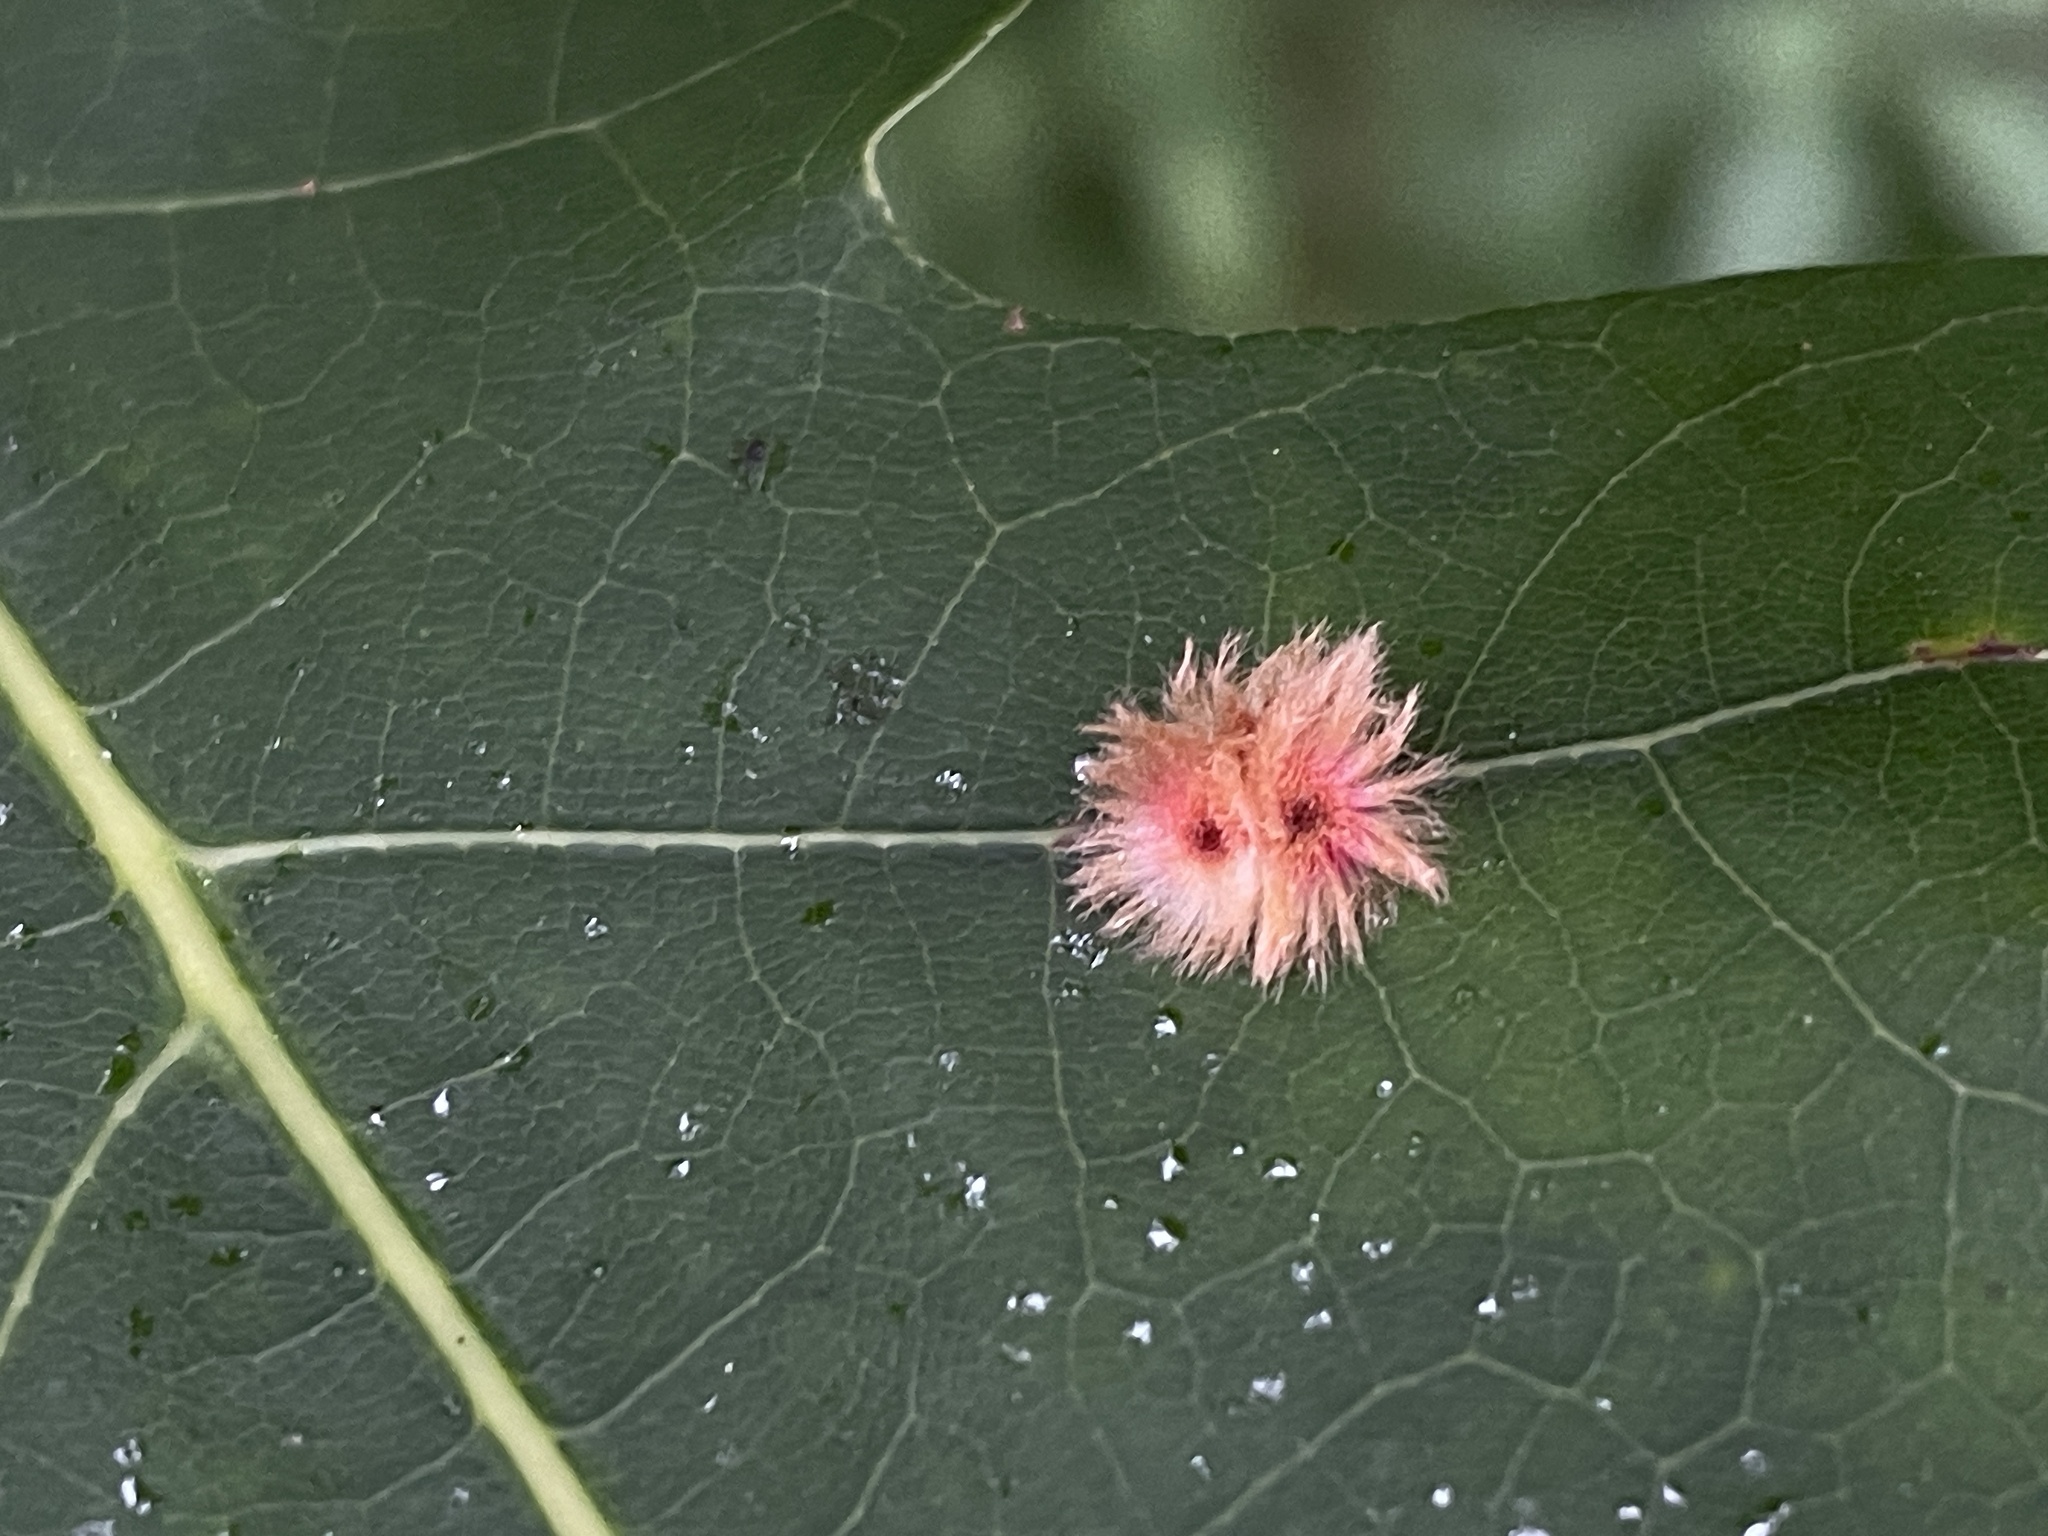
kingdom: Animalia
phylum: Arthropoda
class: Insecta
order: Hymenoptera
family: Cynipidae
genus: Callirhytis
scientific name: Callirhytis
